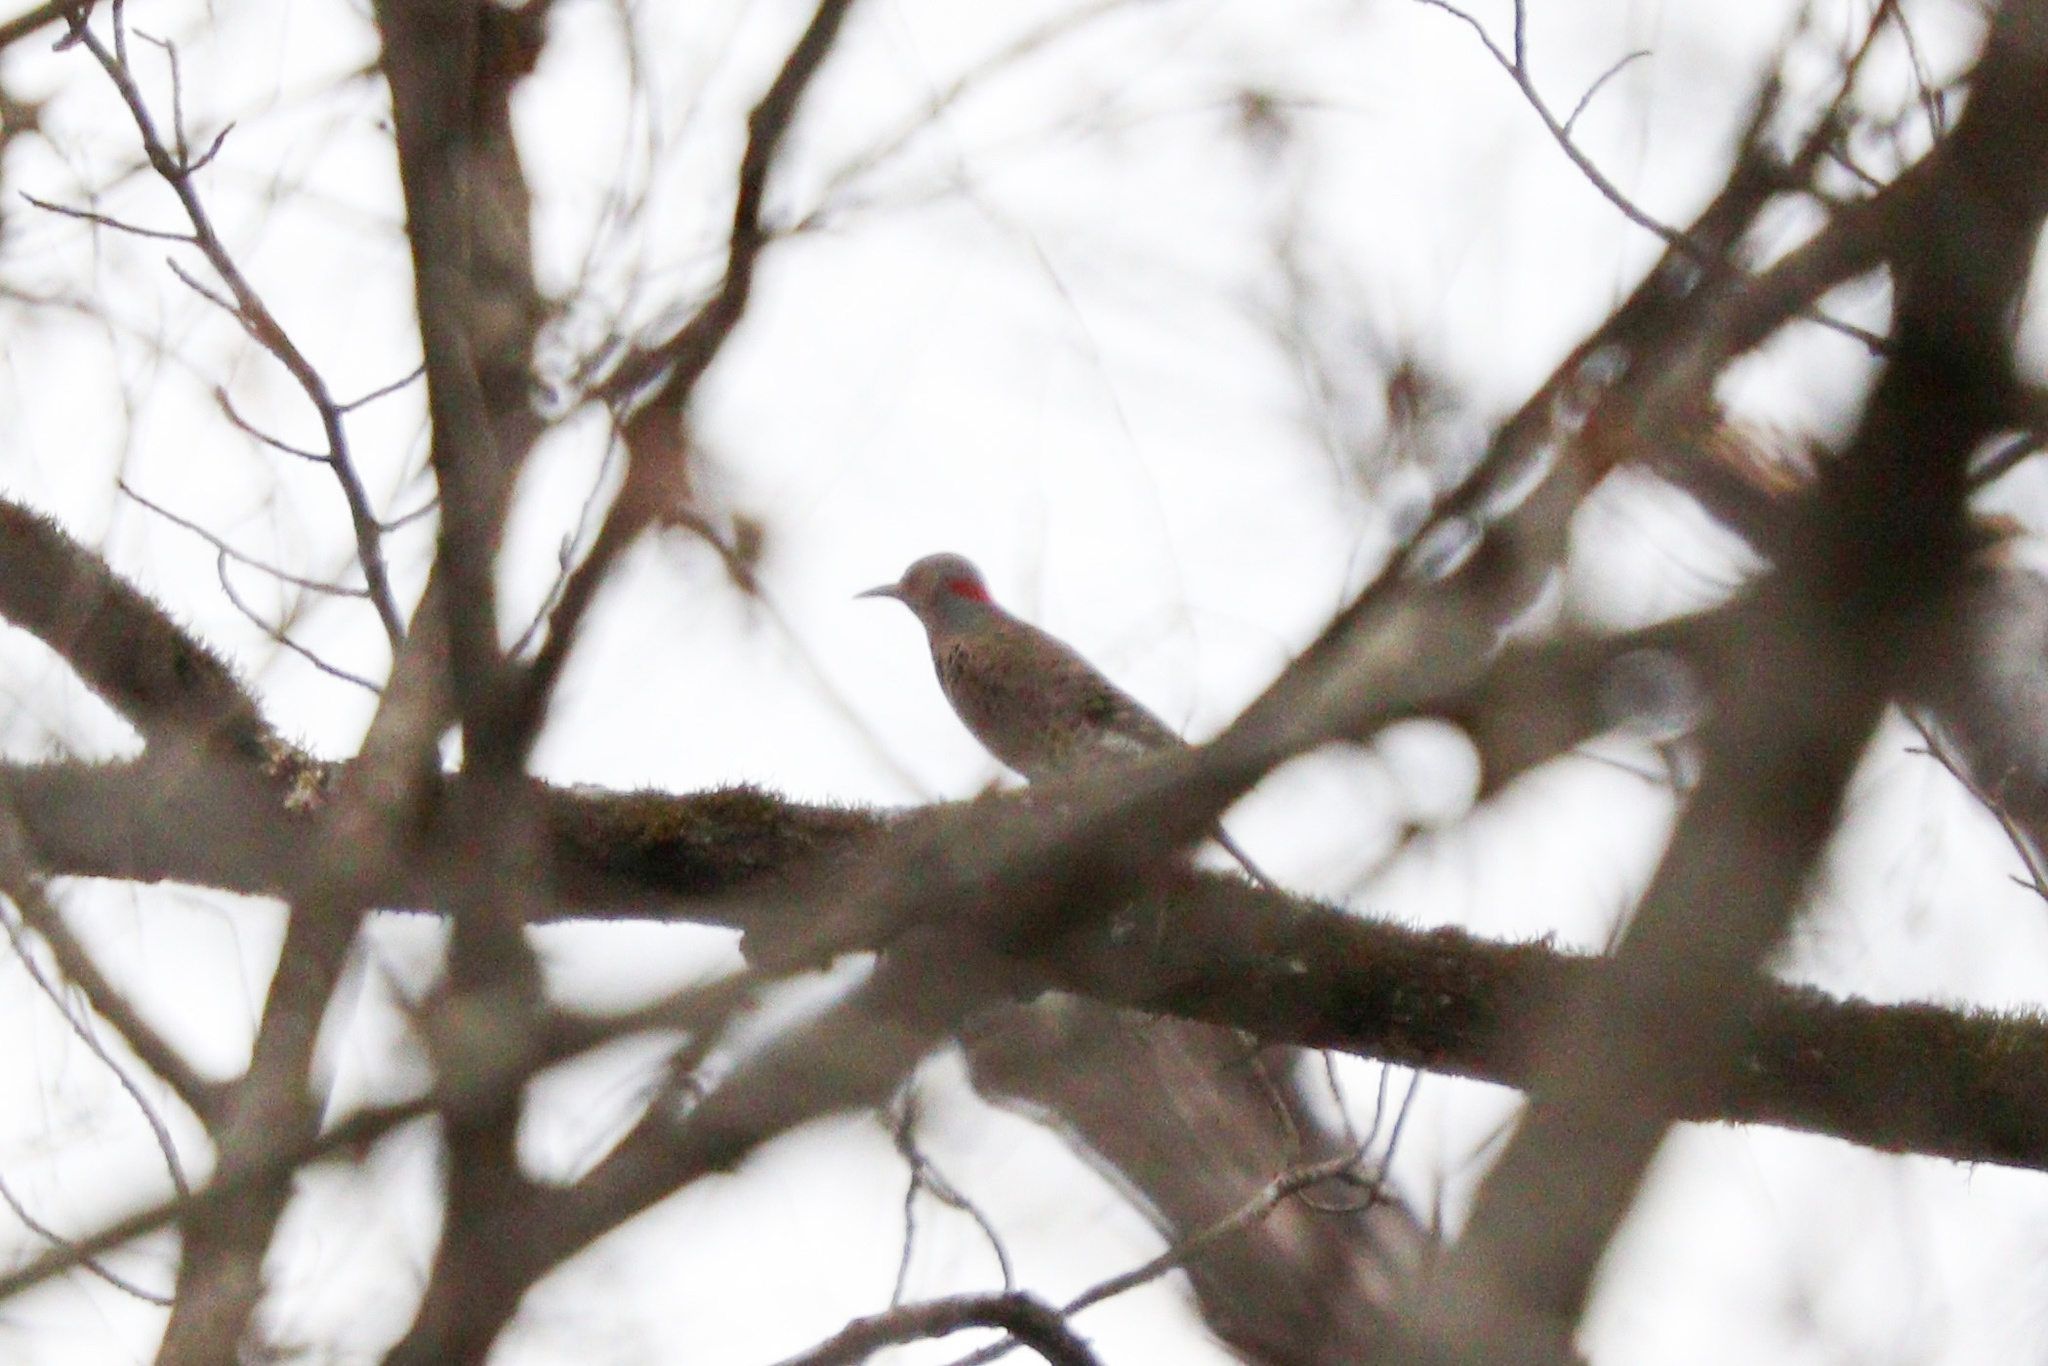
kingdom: Animalia
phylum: Chordata
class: Aves
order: Piciformes
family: Picidae
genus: Colaptes
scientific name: Colaptes auratus
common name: Northern flicker
